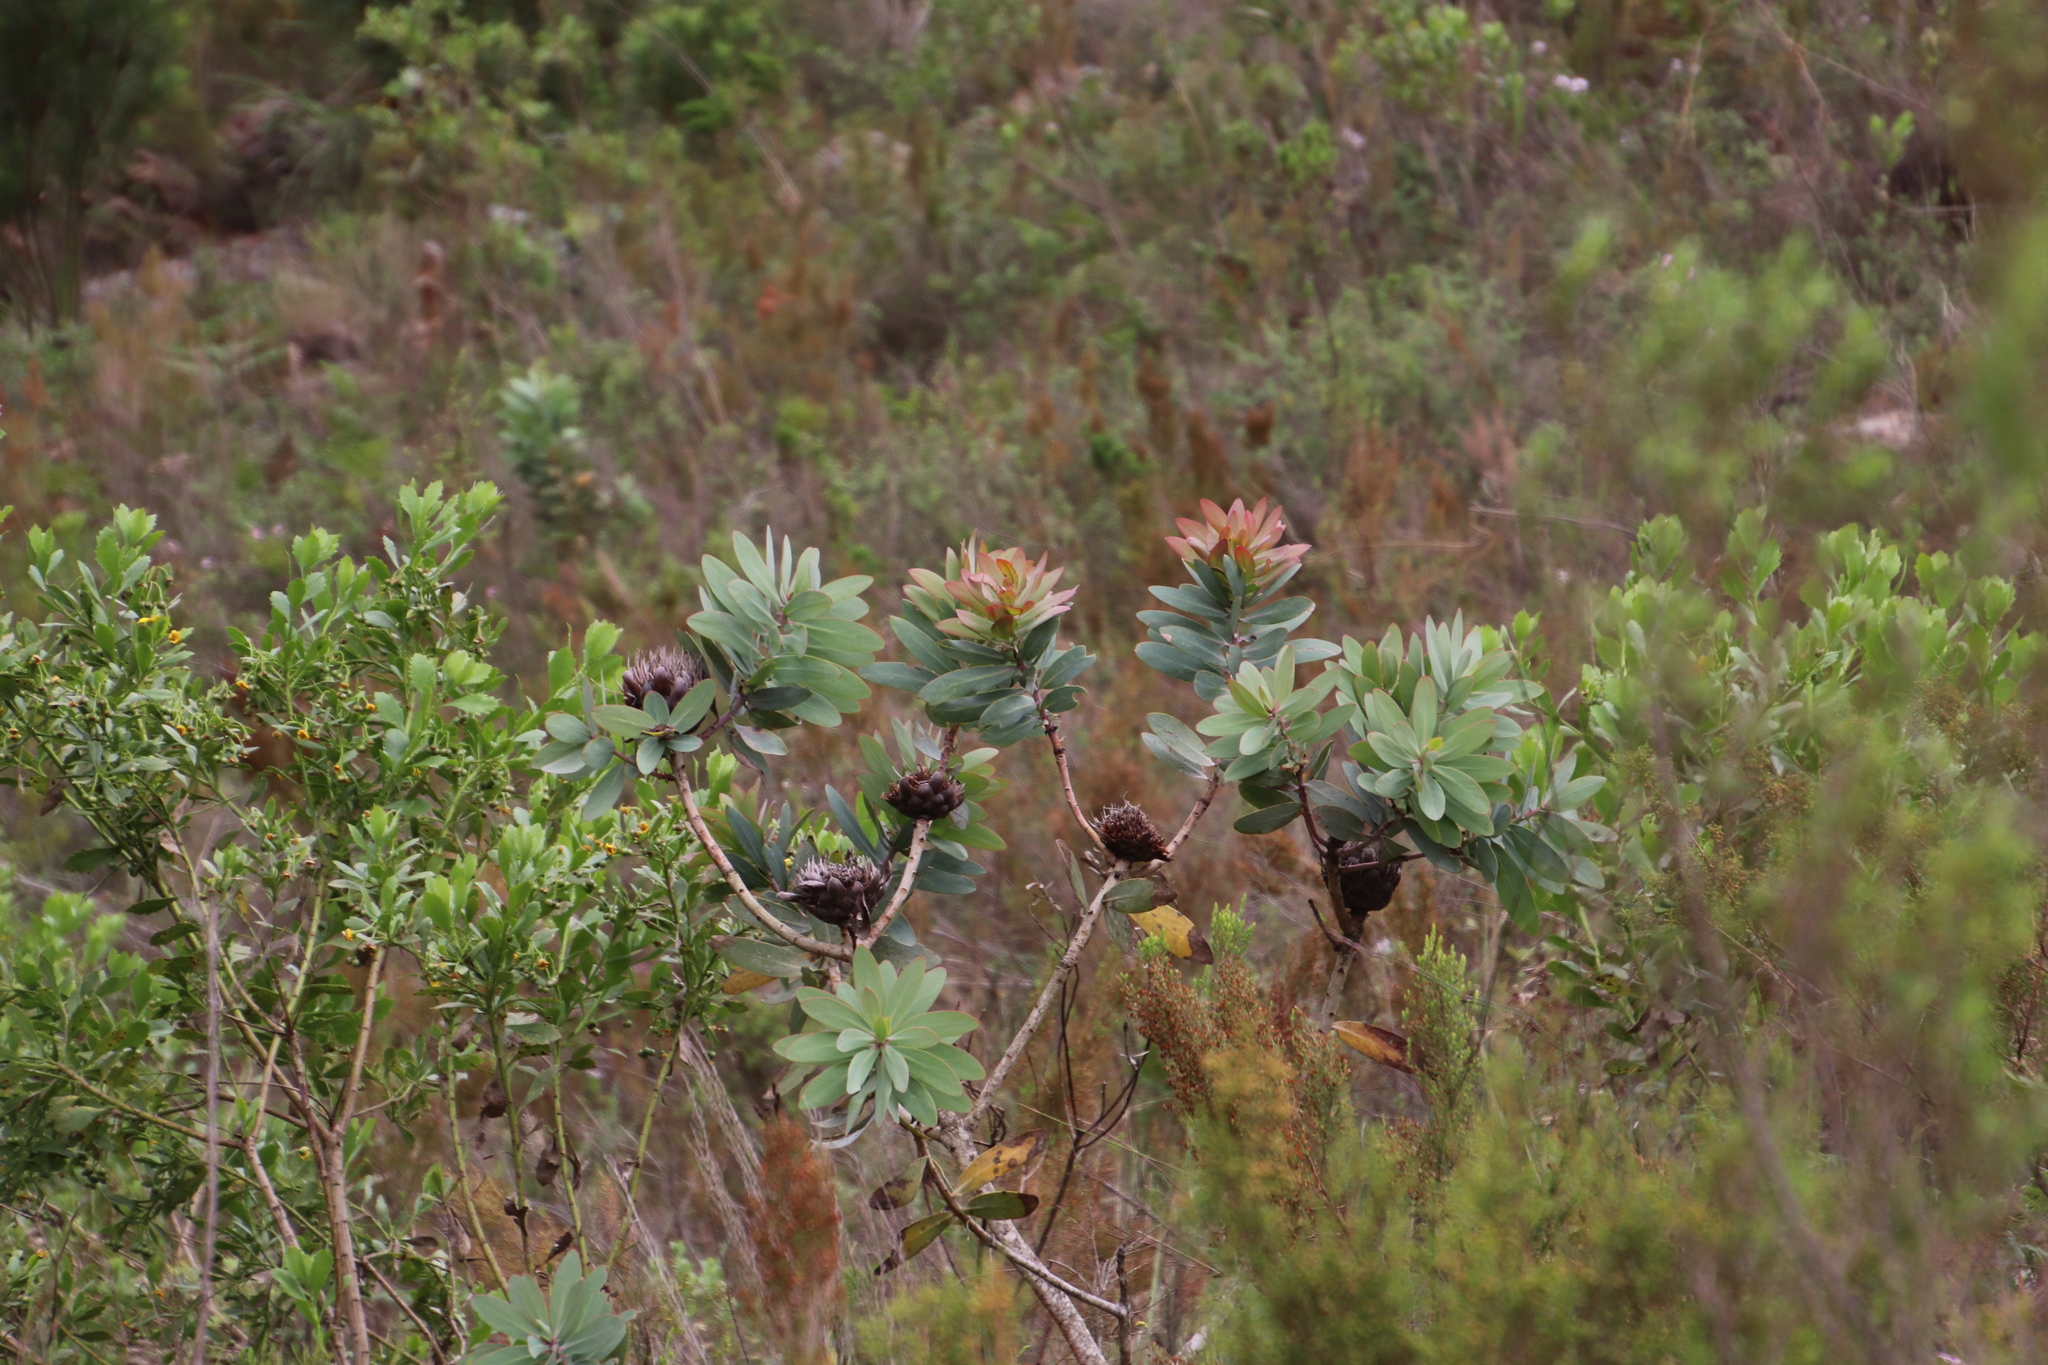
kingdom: Plantae
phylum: Tracheophyta
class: Magnoliopsida
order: Proteales
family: Proteaceae
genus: Protea
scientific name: Protea nitida
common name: Tree protea
